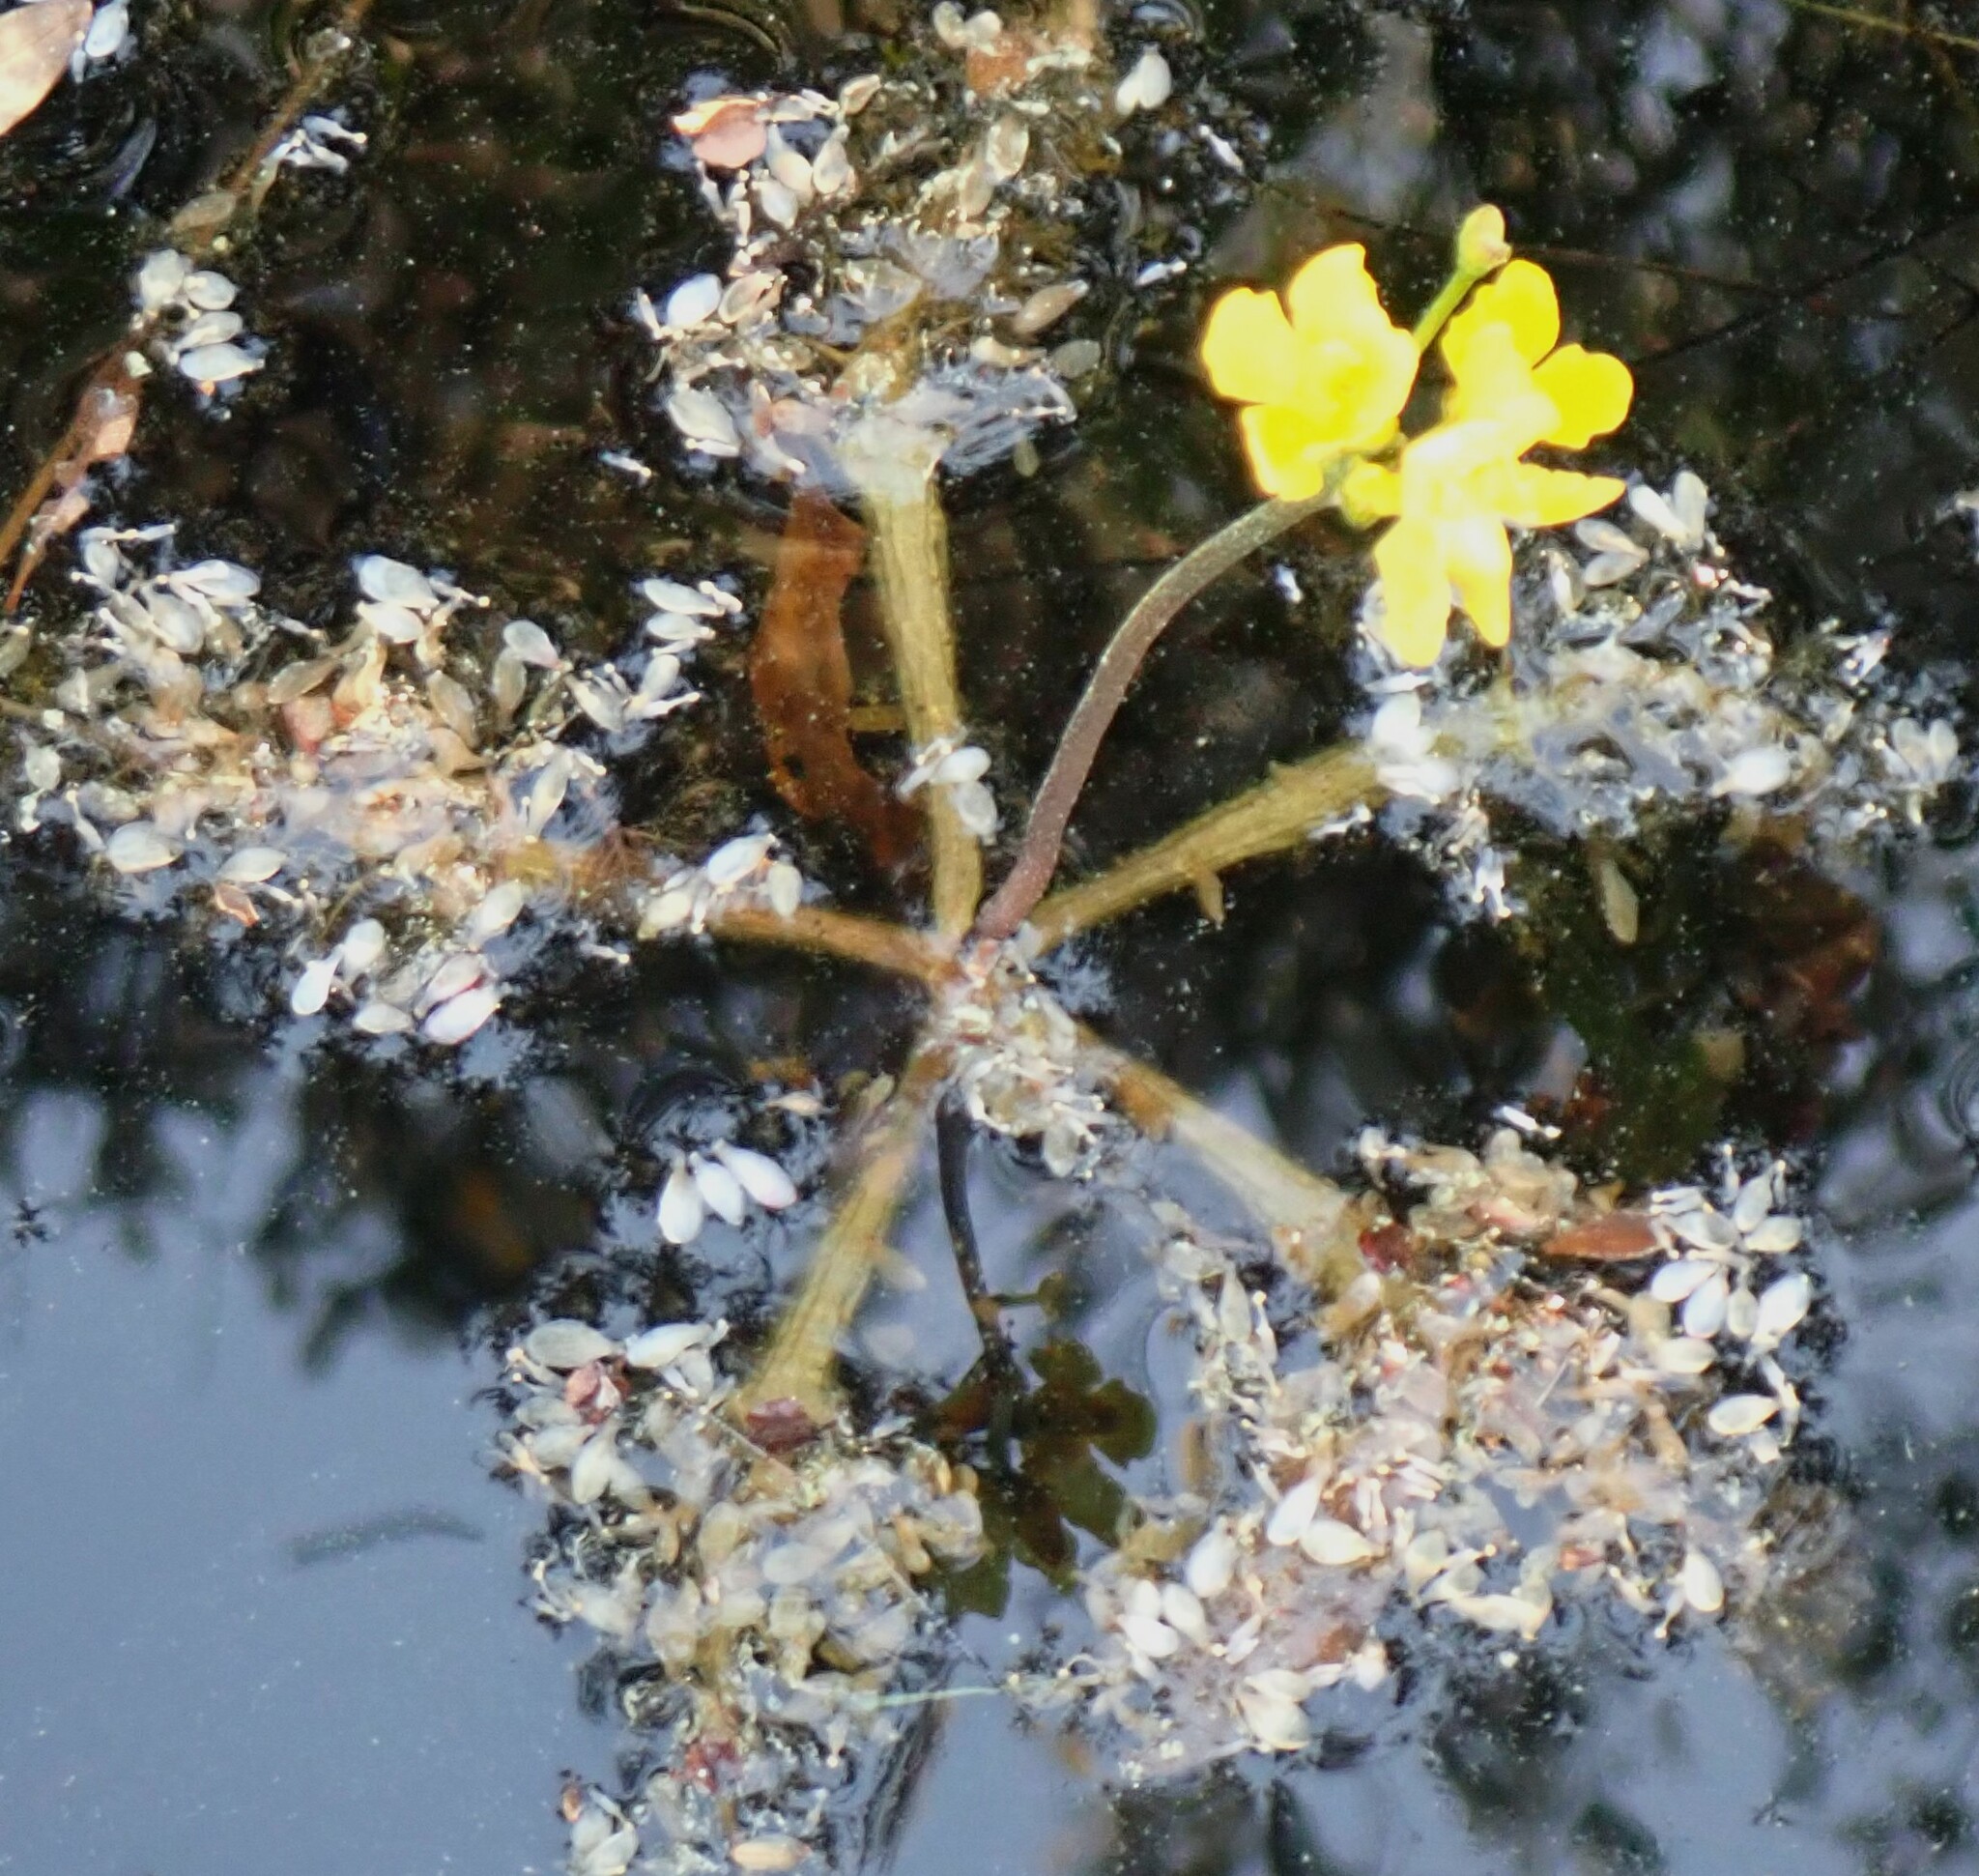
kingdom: Plantae
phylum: Tracheophyta
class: Magnoliopsida
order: Lamiales
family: Lentibulariaceae
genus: Utricularia
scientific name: Utricularia inflata
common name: Floating bladderwort
